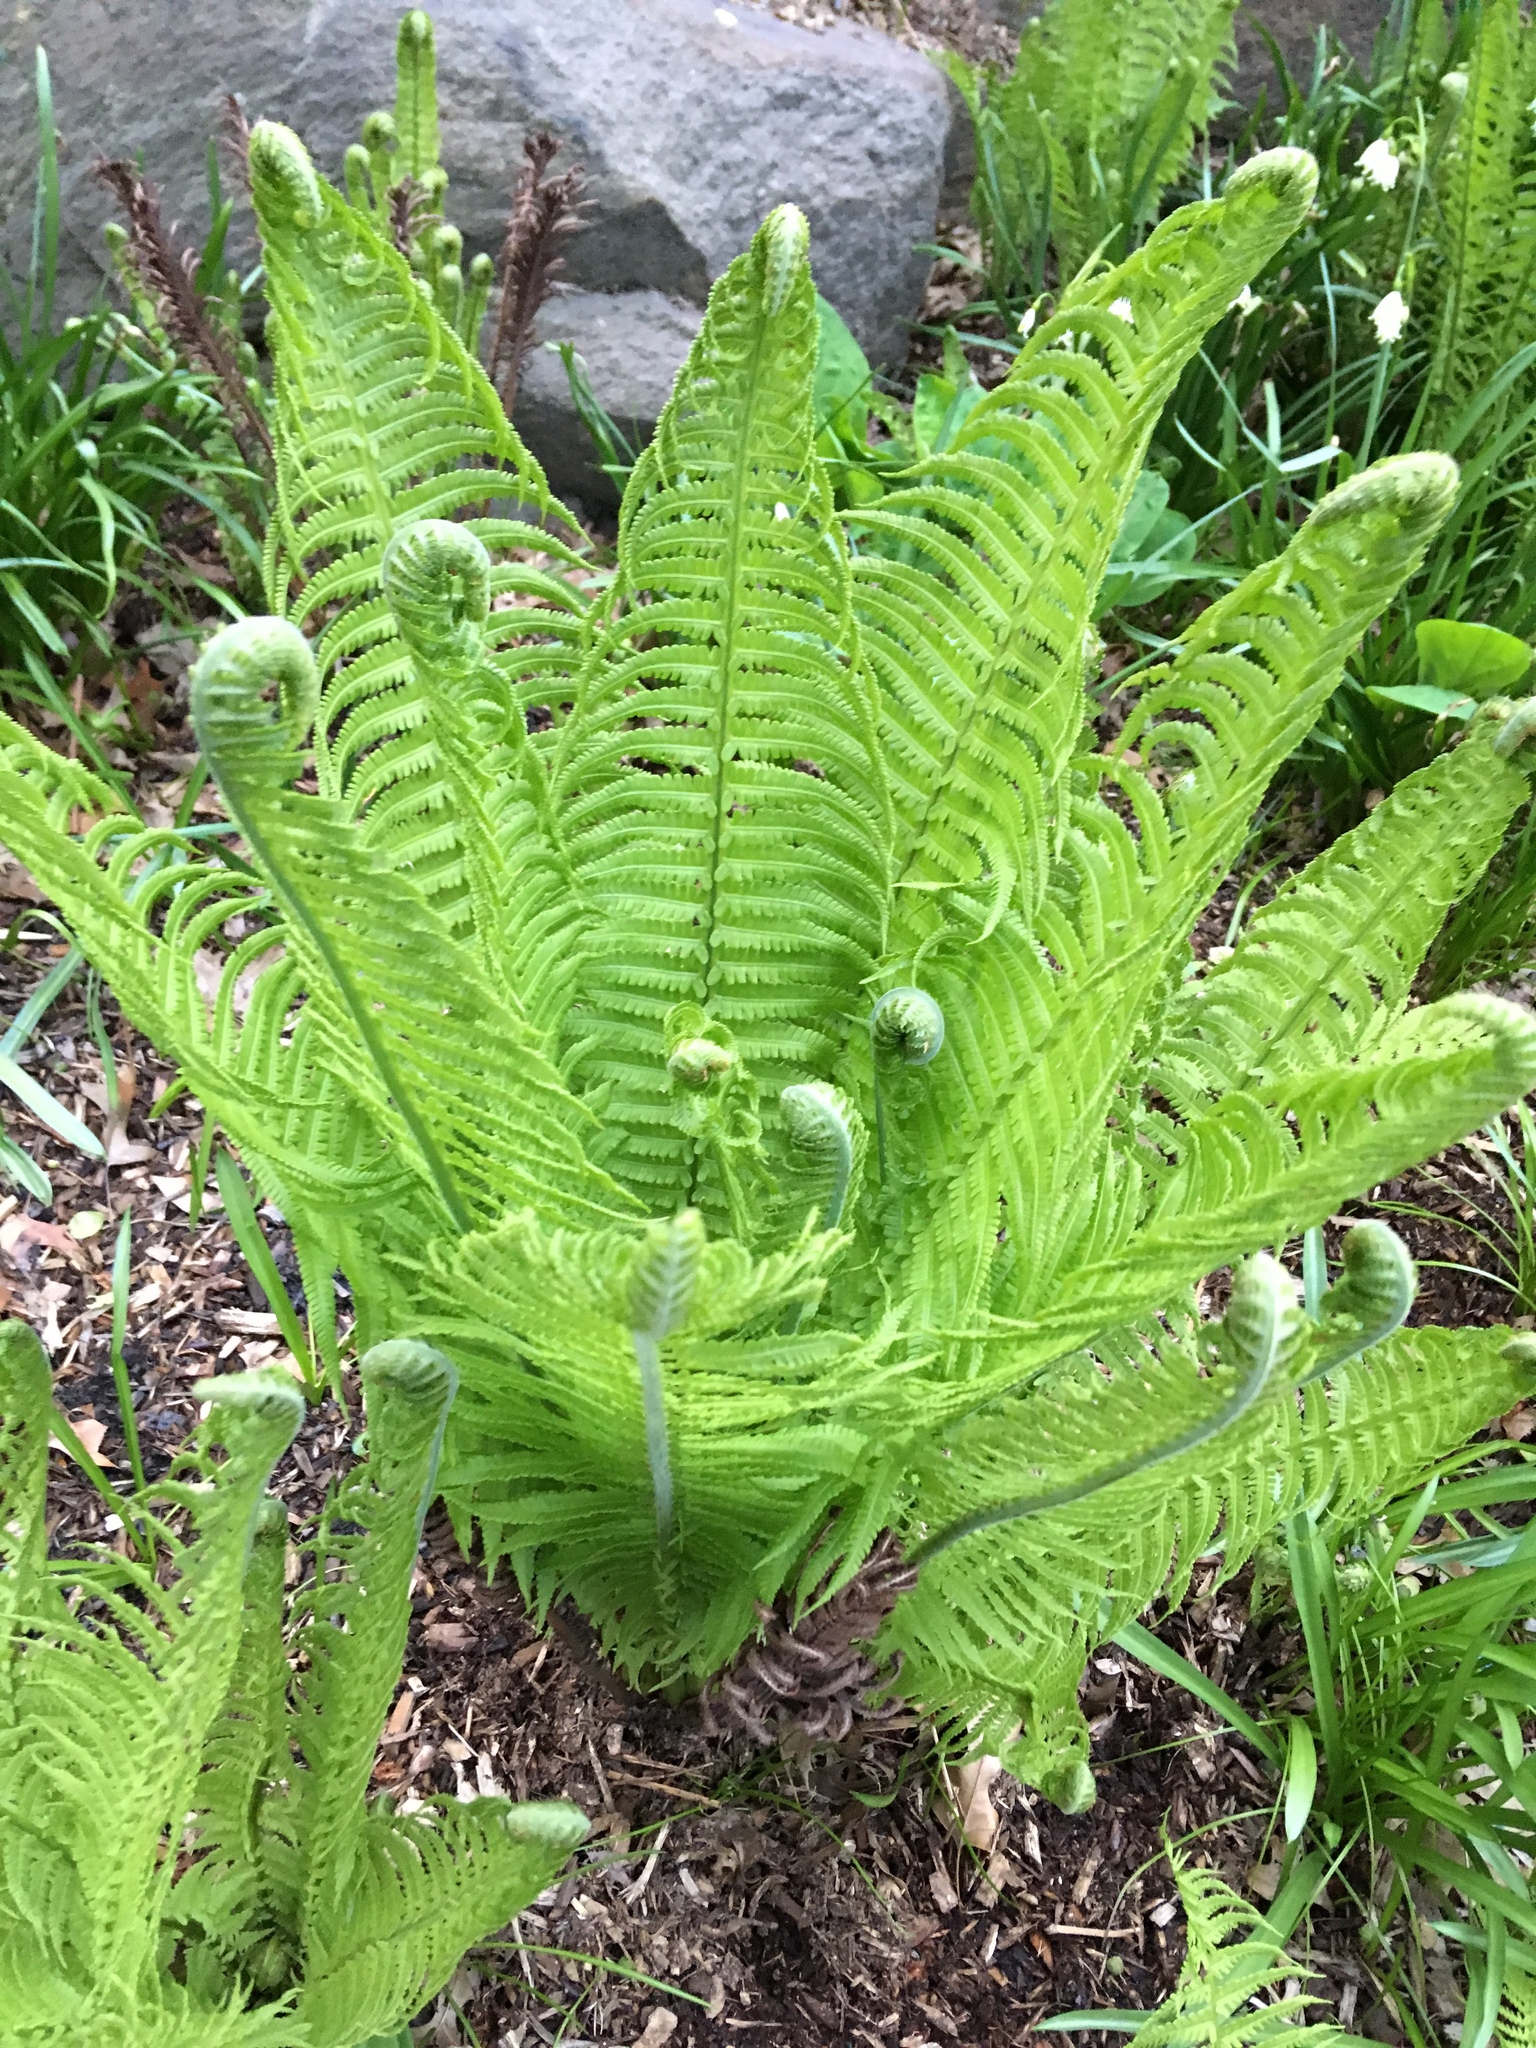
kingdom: Plantae
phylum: Tracheophyta
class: Polypodiopsida
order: Polypodiales
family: Onocleaceae
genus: Matteuccia
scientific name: Matteuccia struthiopteris
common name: Ostrich fern
